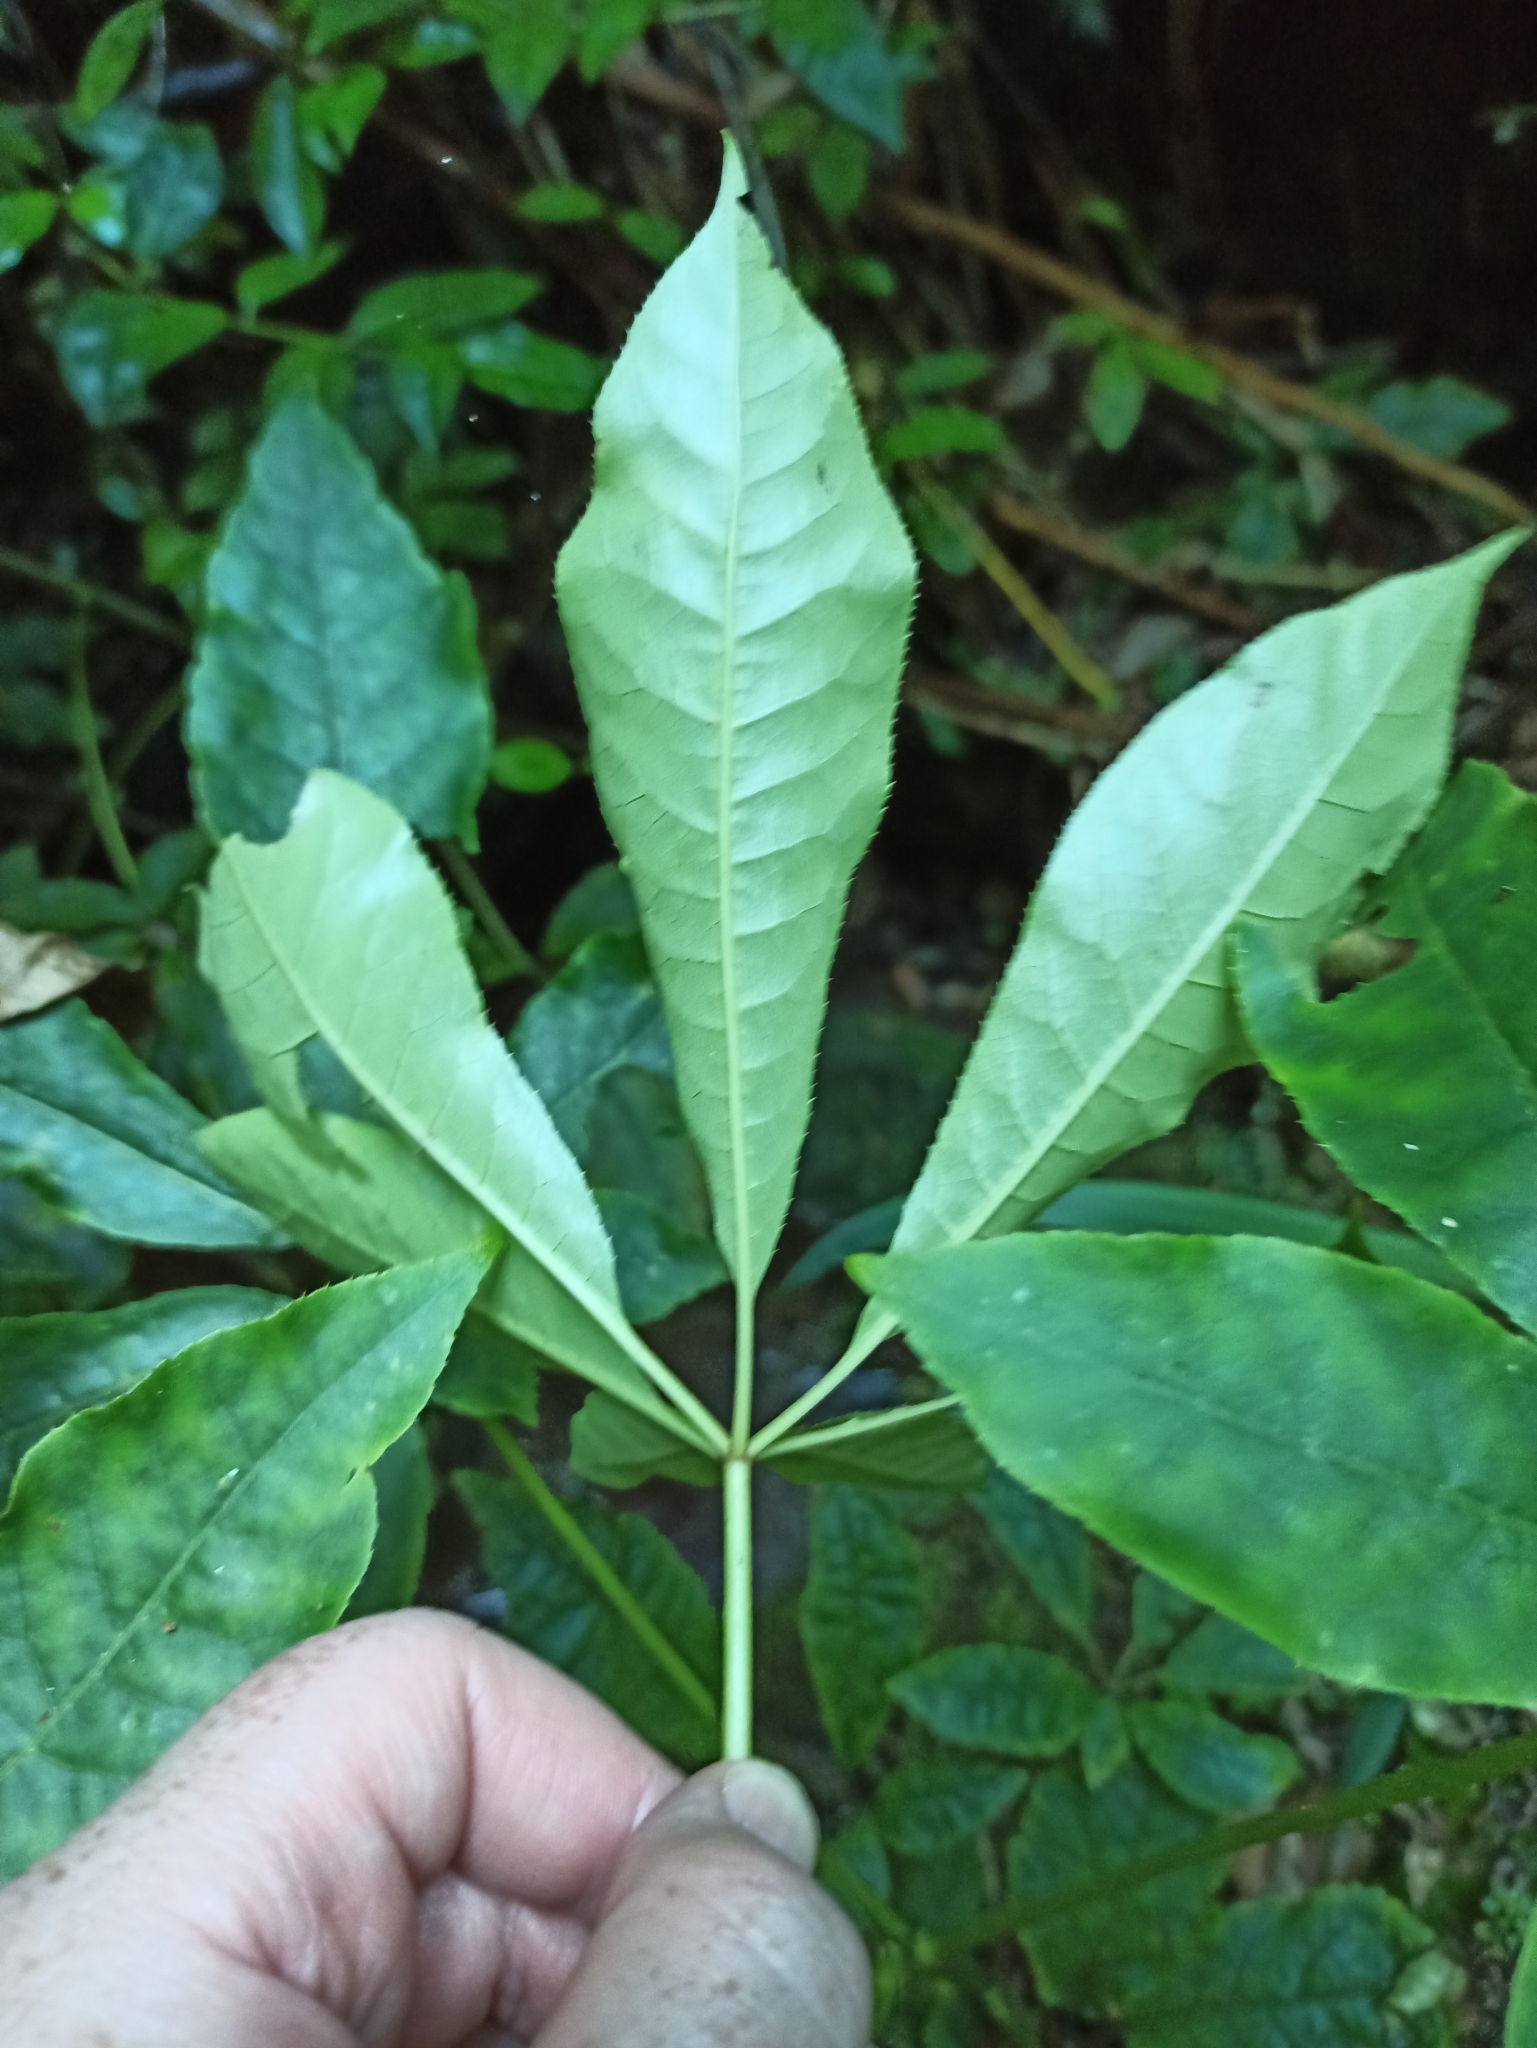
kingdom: Plantae
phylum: Tracheophyta
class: Magnoliopsida
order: Apiales
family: Araliaceae
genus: Schefflera
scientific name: Schefflera digitata
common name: Pate
